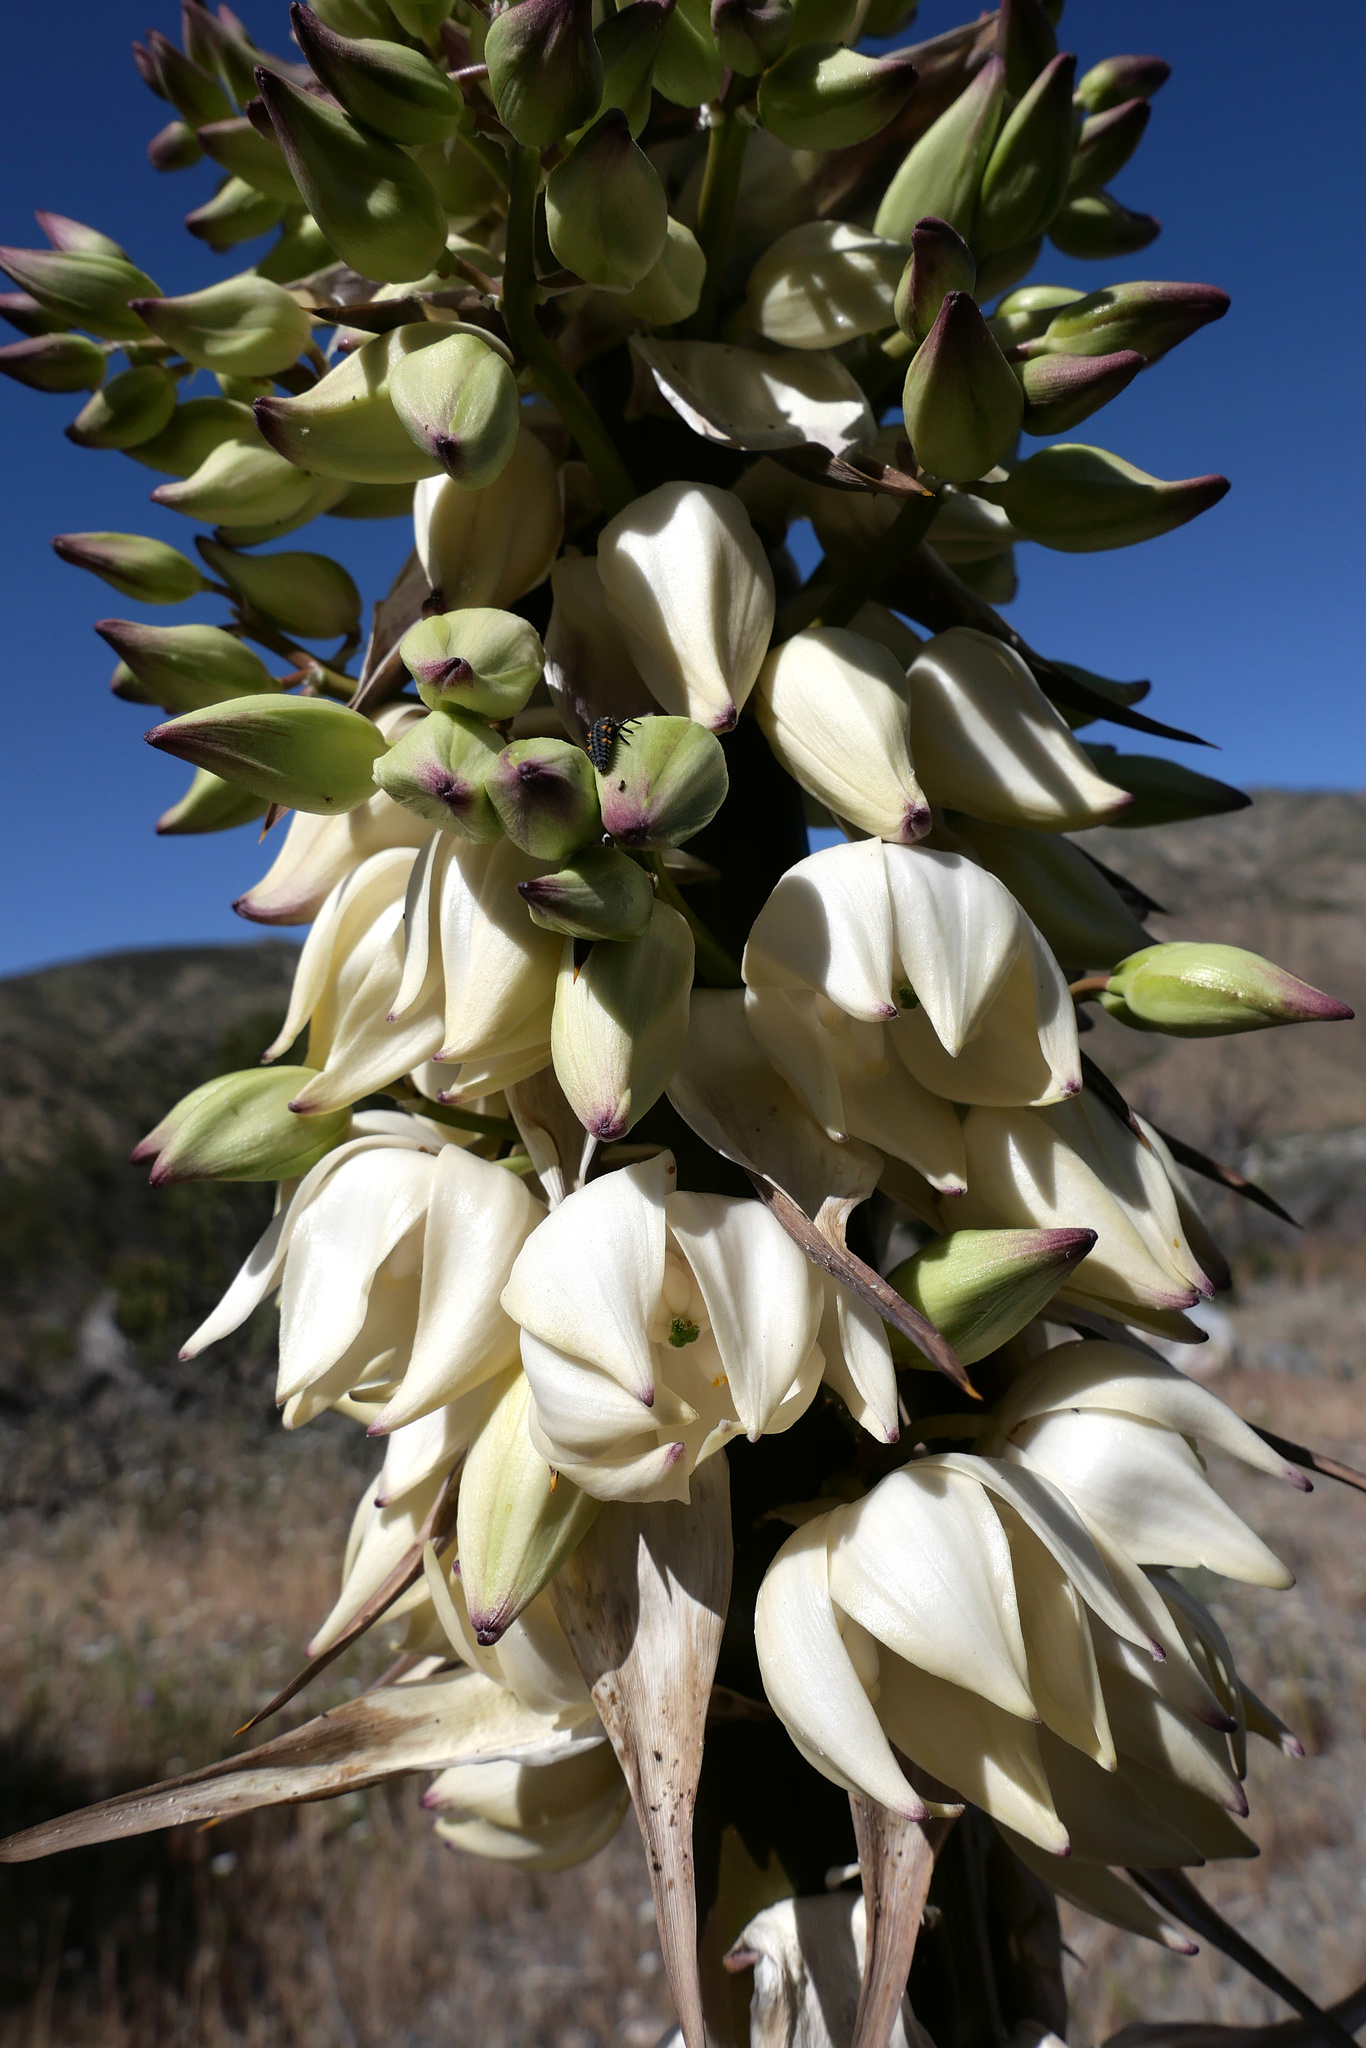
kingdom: Plantae
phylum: Tracheophyta
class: Liliopsida
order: Asparagales
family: Asparagaceae
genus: Hesperoyucca
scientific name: Hesperoyucca whipplei
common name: Our lord's-candle
